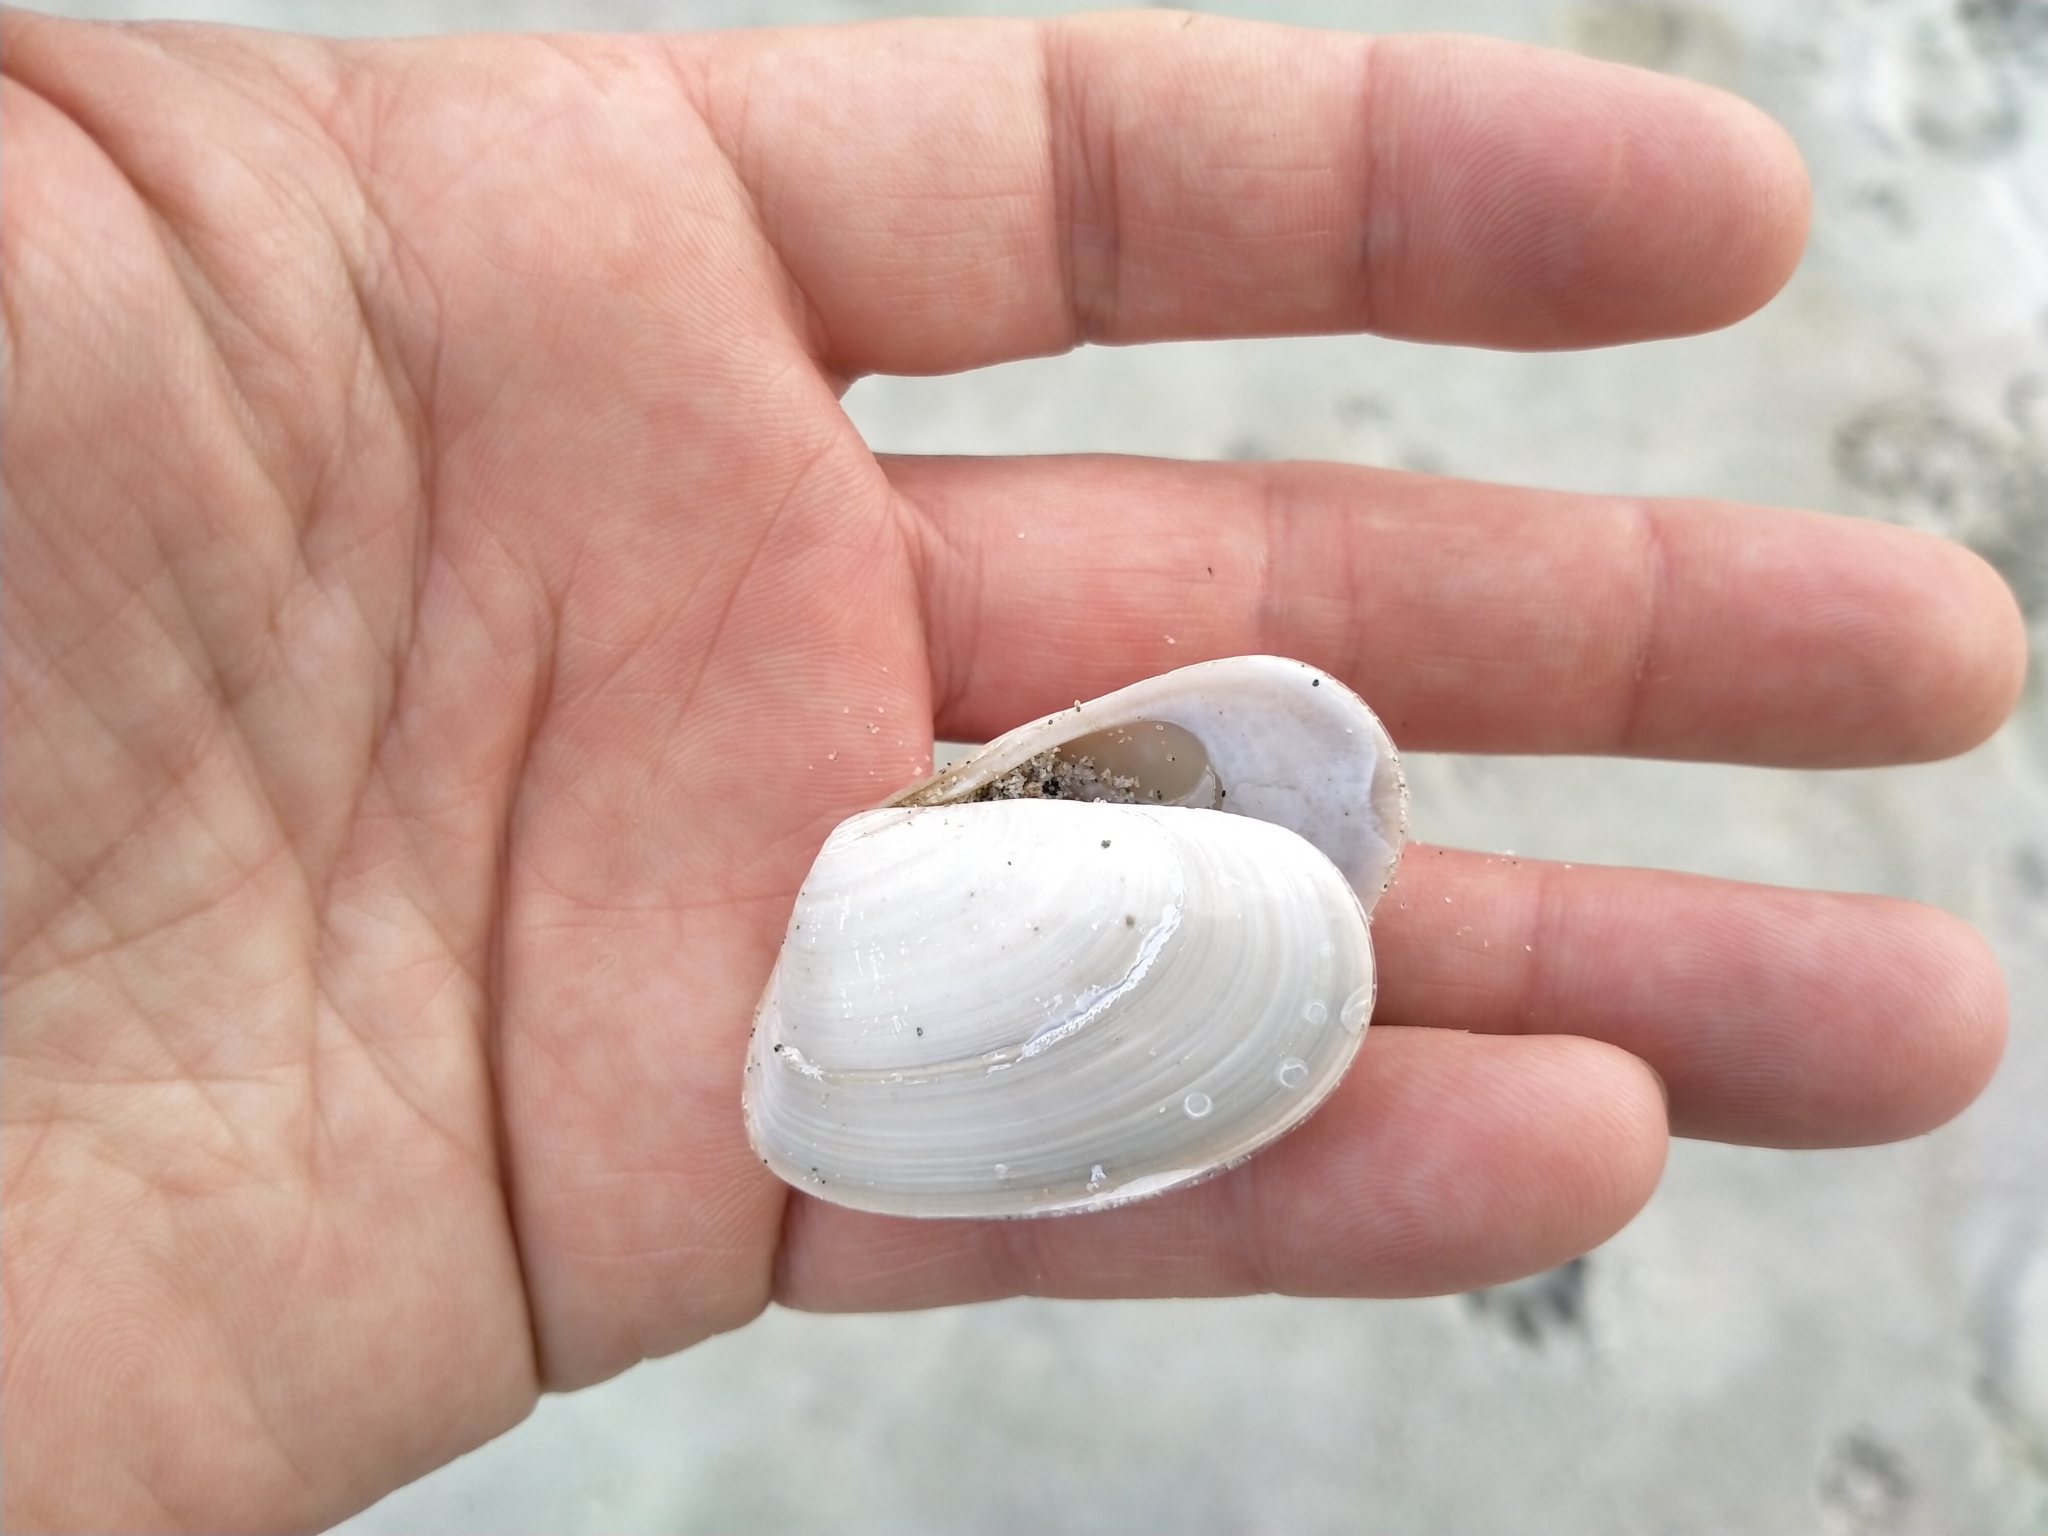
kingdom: Animalia
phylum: Mollusca
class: Bivalvia
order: Venerida
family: Mesodesmatidae
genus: Paphies
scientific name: Paphies subtriangulata
